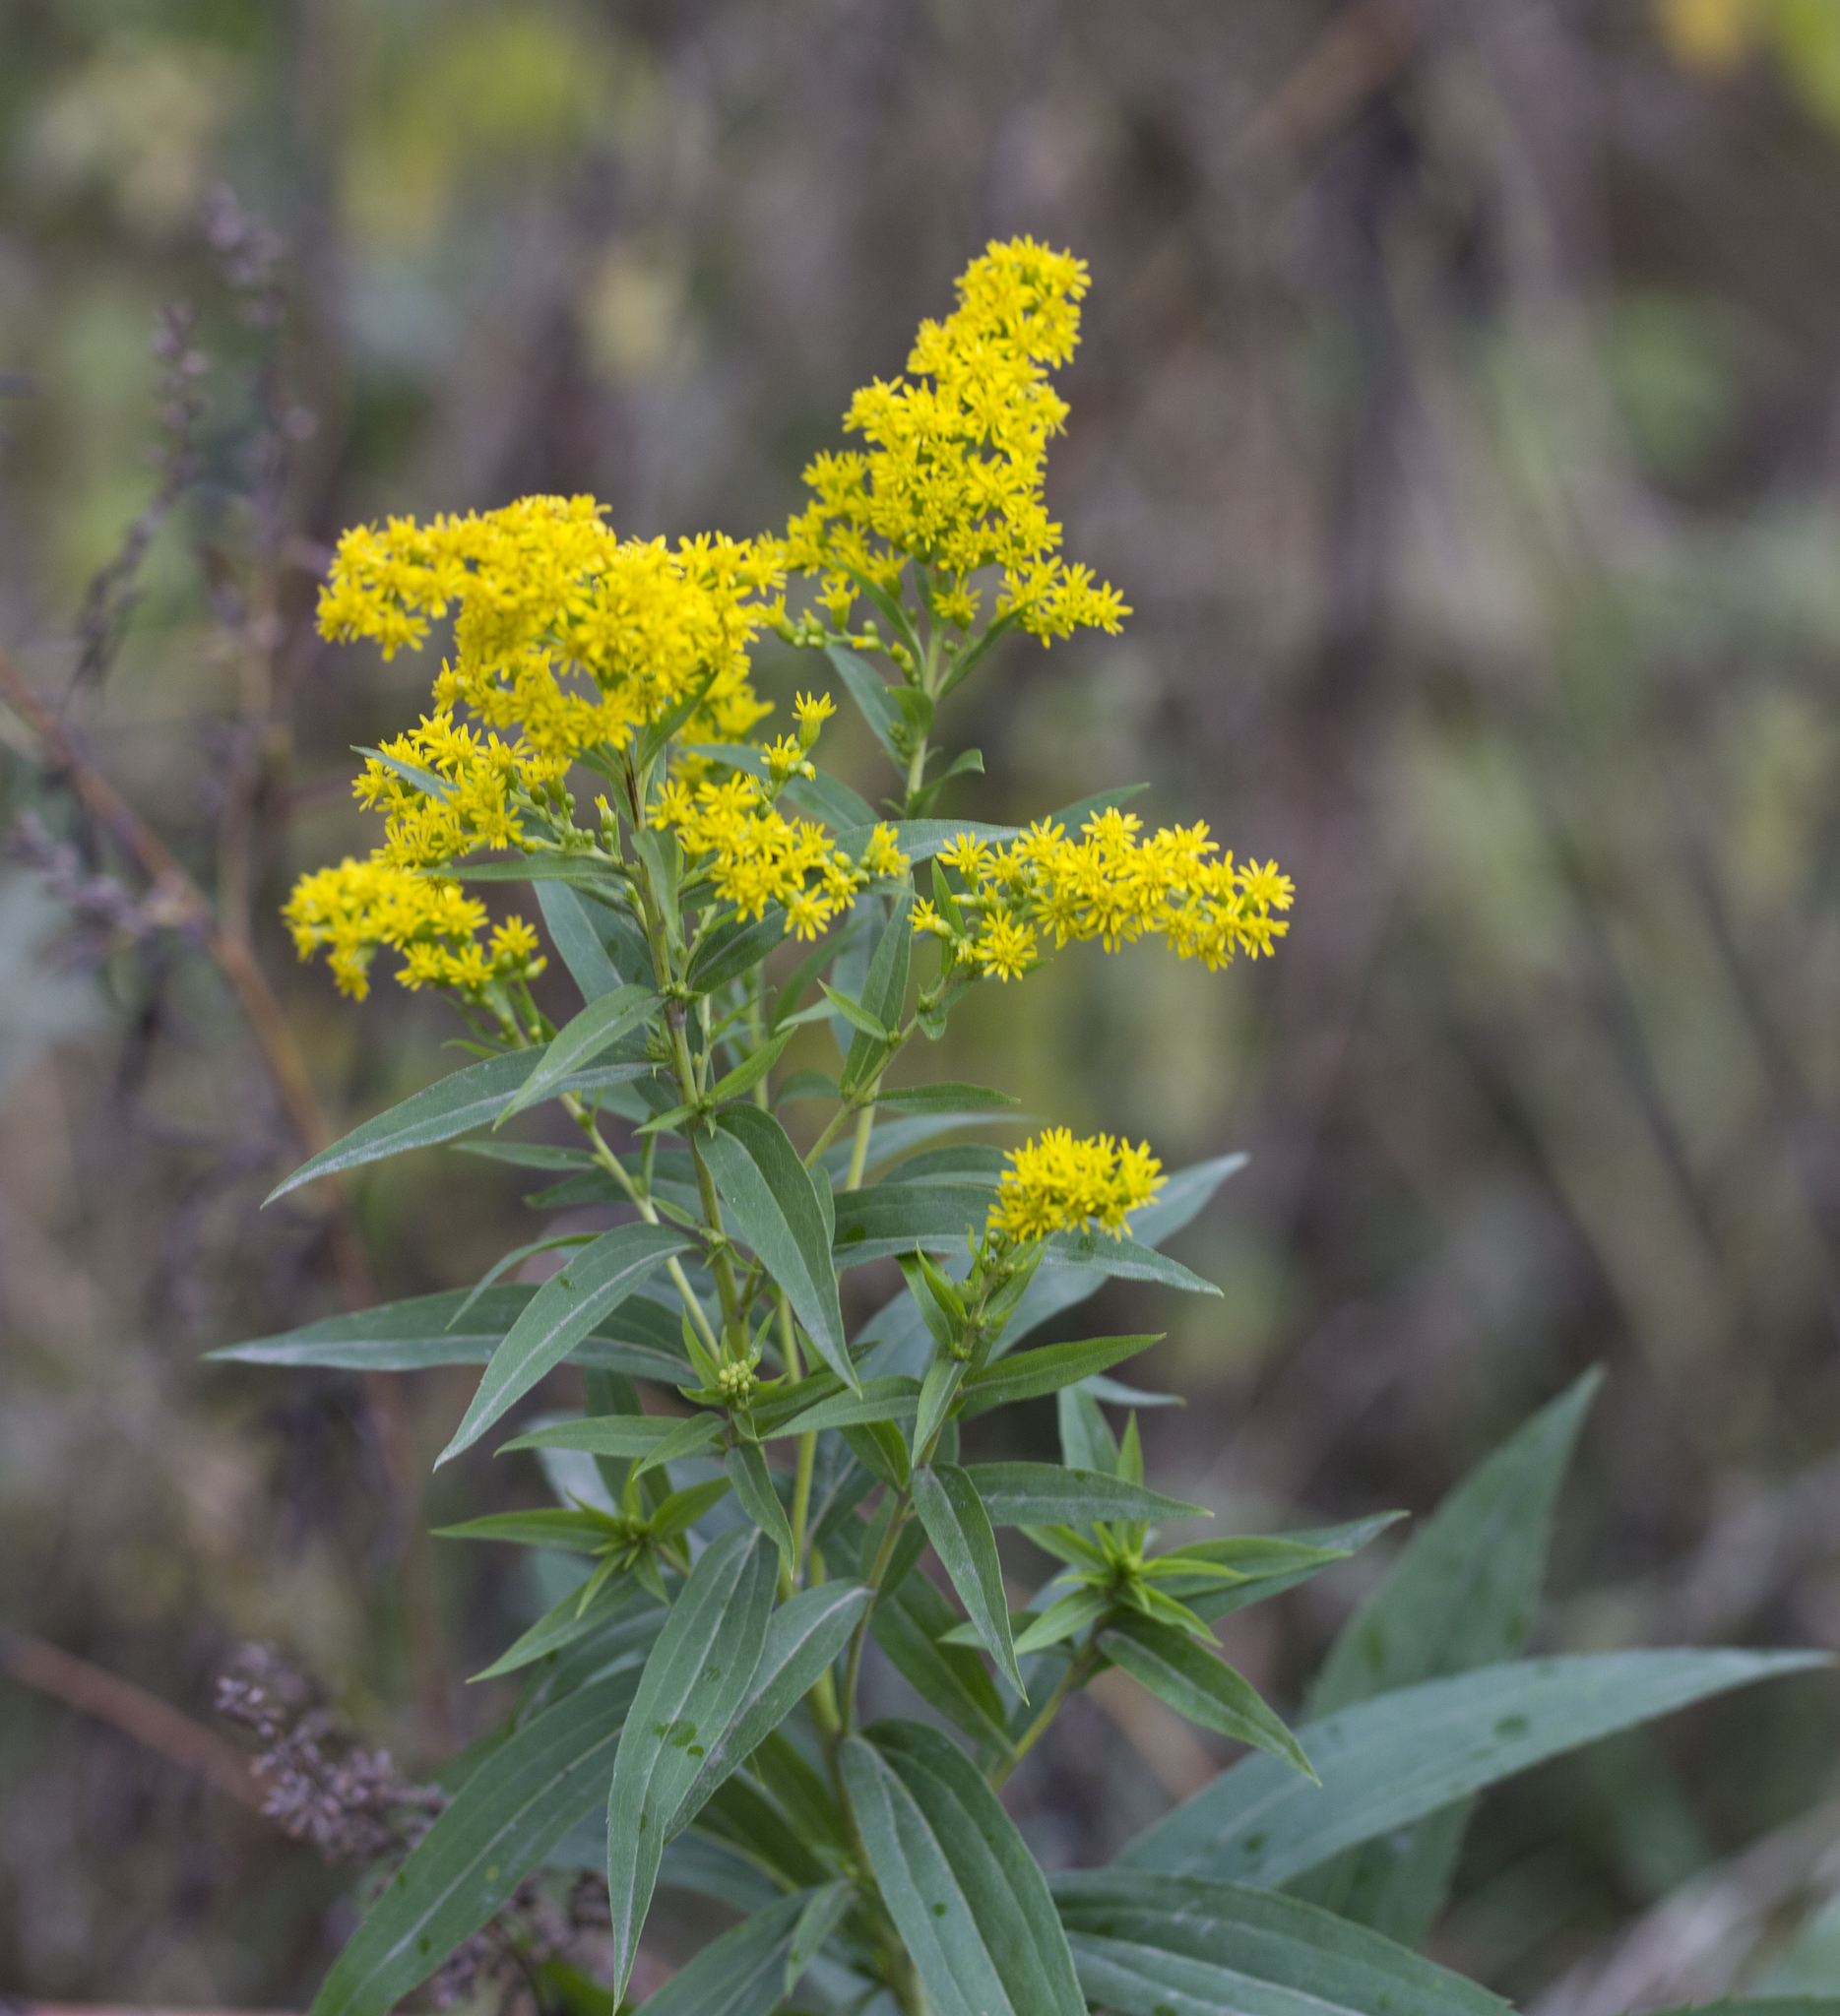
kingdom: Plantae
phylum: Tracheophyta
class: Magnoliopsida
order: Asterales
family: Asteraceae
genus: Solidago
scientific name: Solidago gigantea
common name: Giant goldenrod
